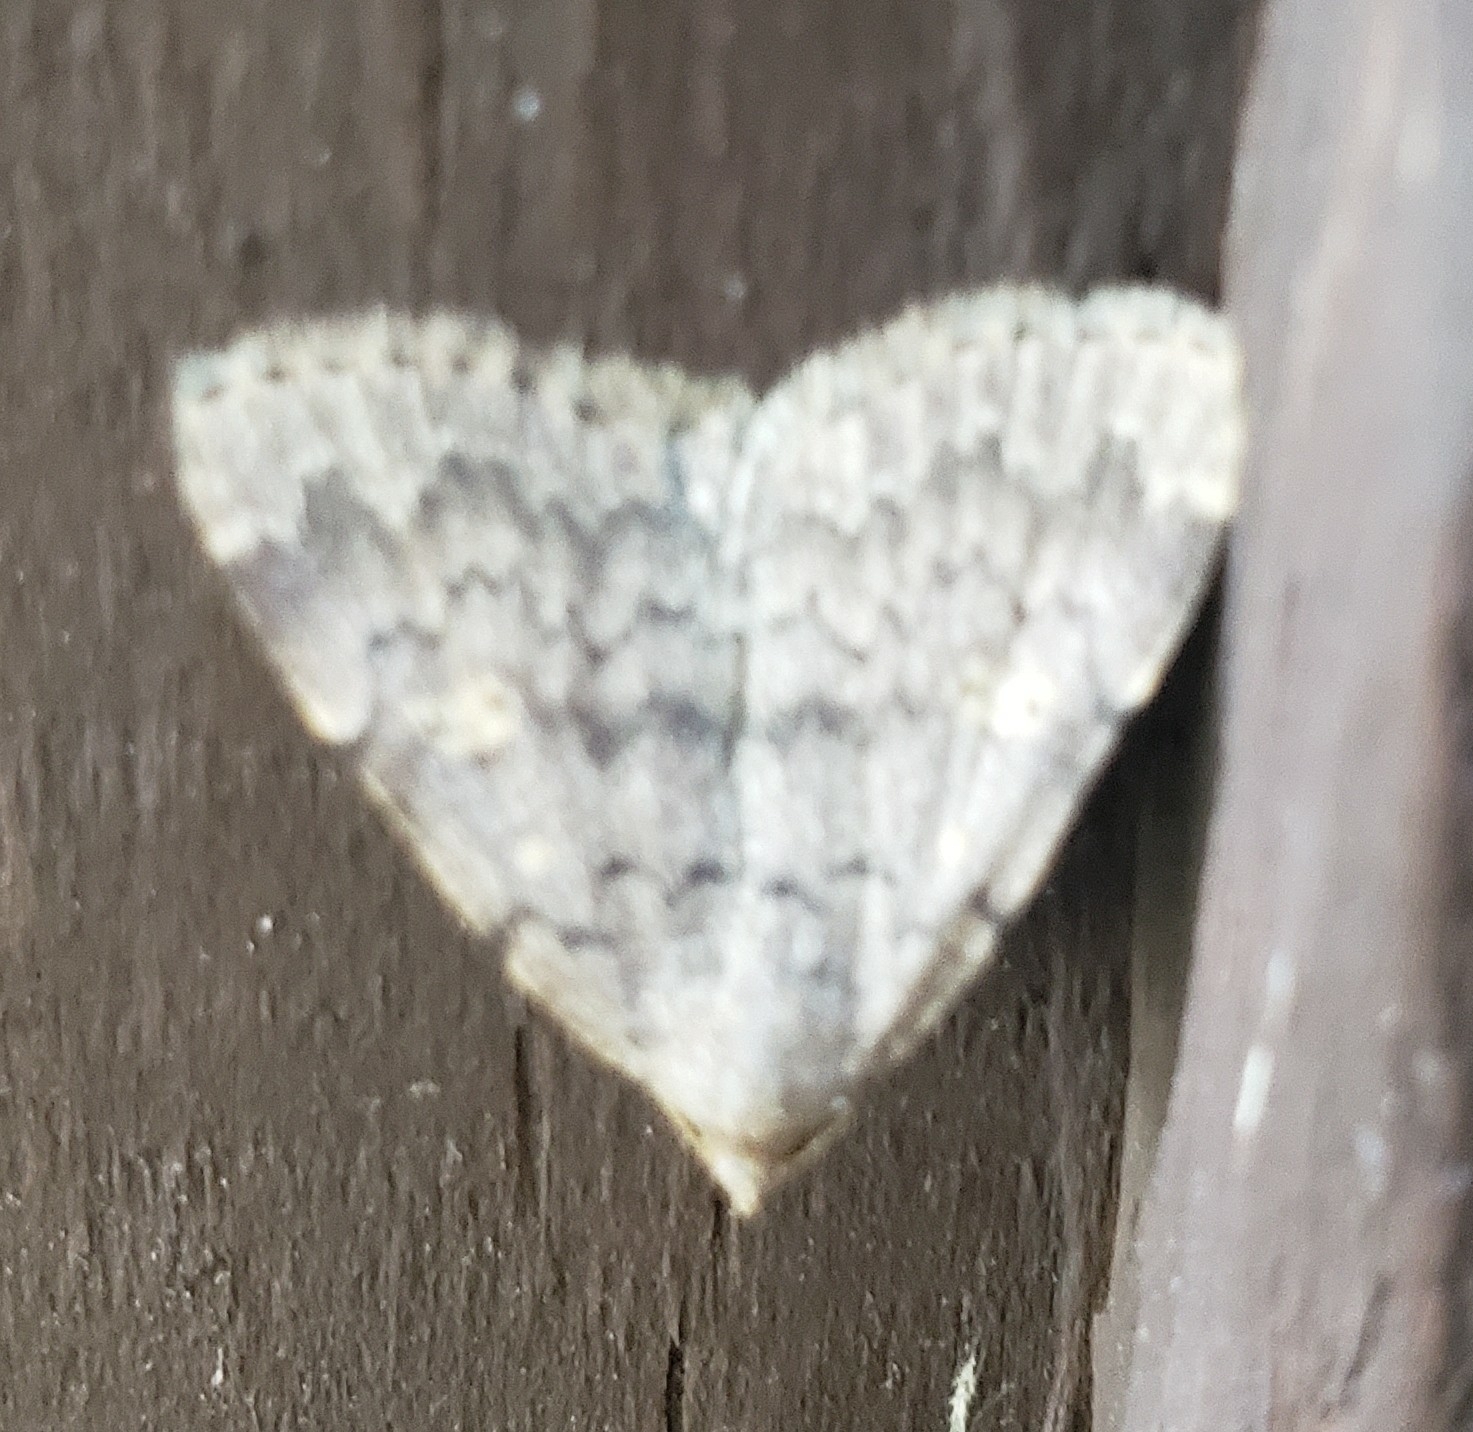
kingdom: Animalia
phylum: Arthropoda
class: Insecta
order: Lepidoptera
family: Erebidae
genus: Idia
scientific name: Idia aemula
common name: Common idia moth
